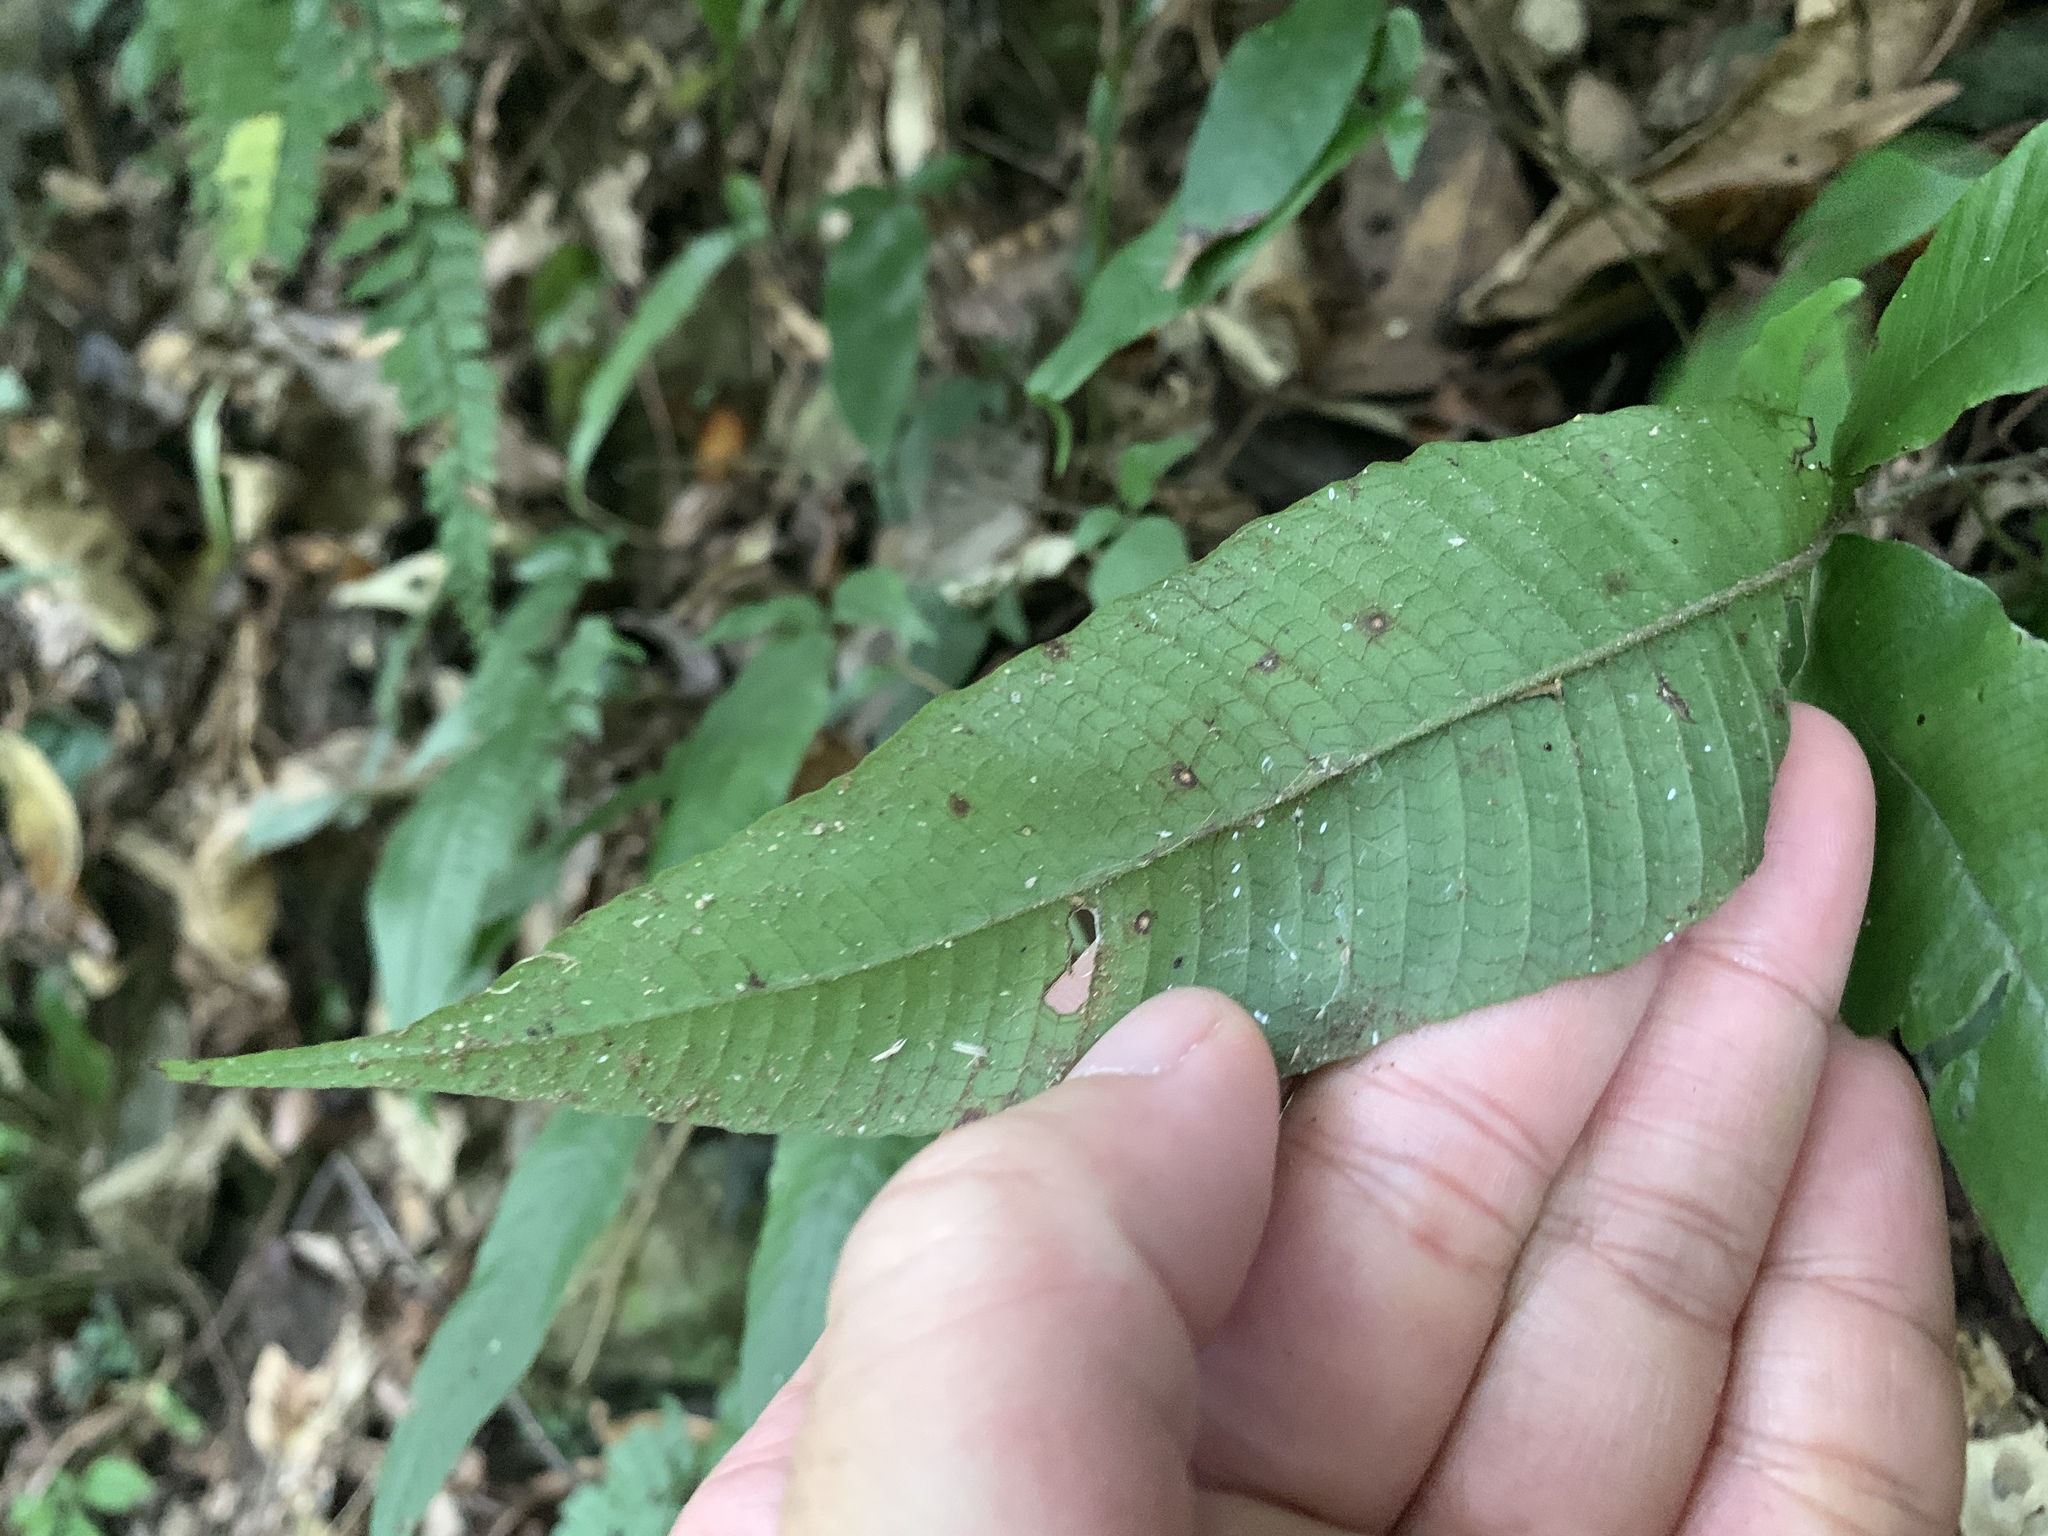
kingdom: Plantae
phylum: Tracheophyta
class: Polypodiopsida
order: Polypodiales
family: Thelypteridaceae
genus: Grypothrix
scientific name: Grypothrix triphylla
